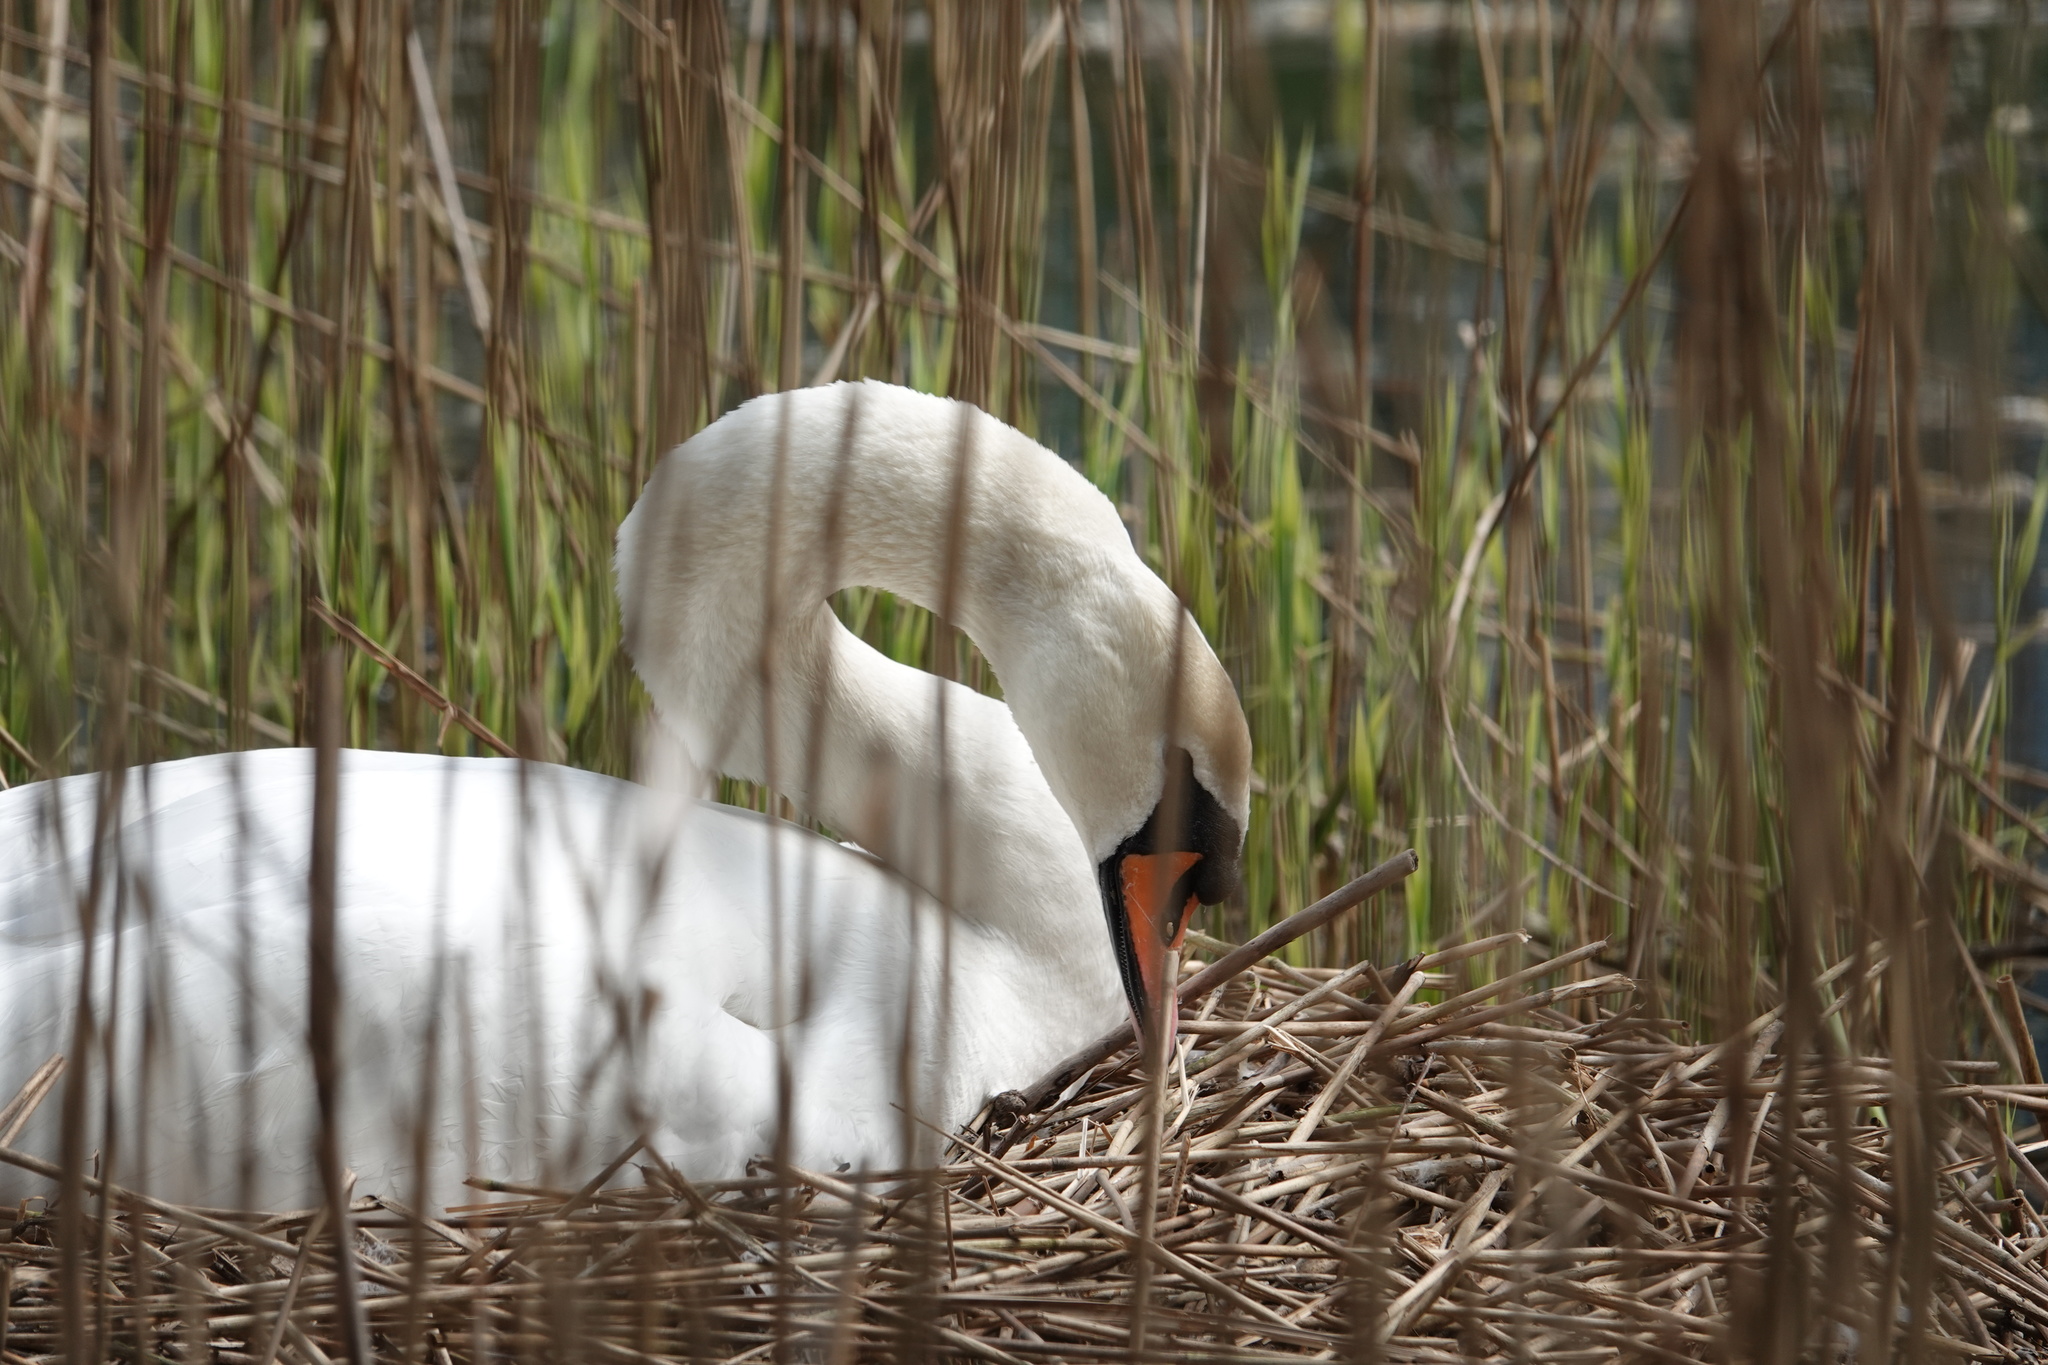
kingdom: Animalia
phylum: Chordata
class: Aves
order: Anseriformes
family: Anatidae
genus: Cygnus
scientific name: Cygnus olor
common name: Mute swan
